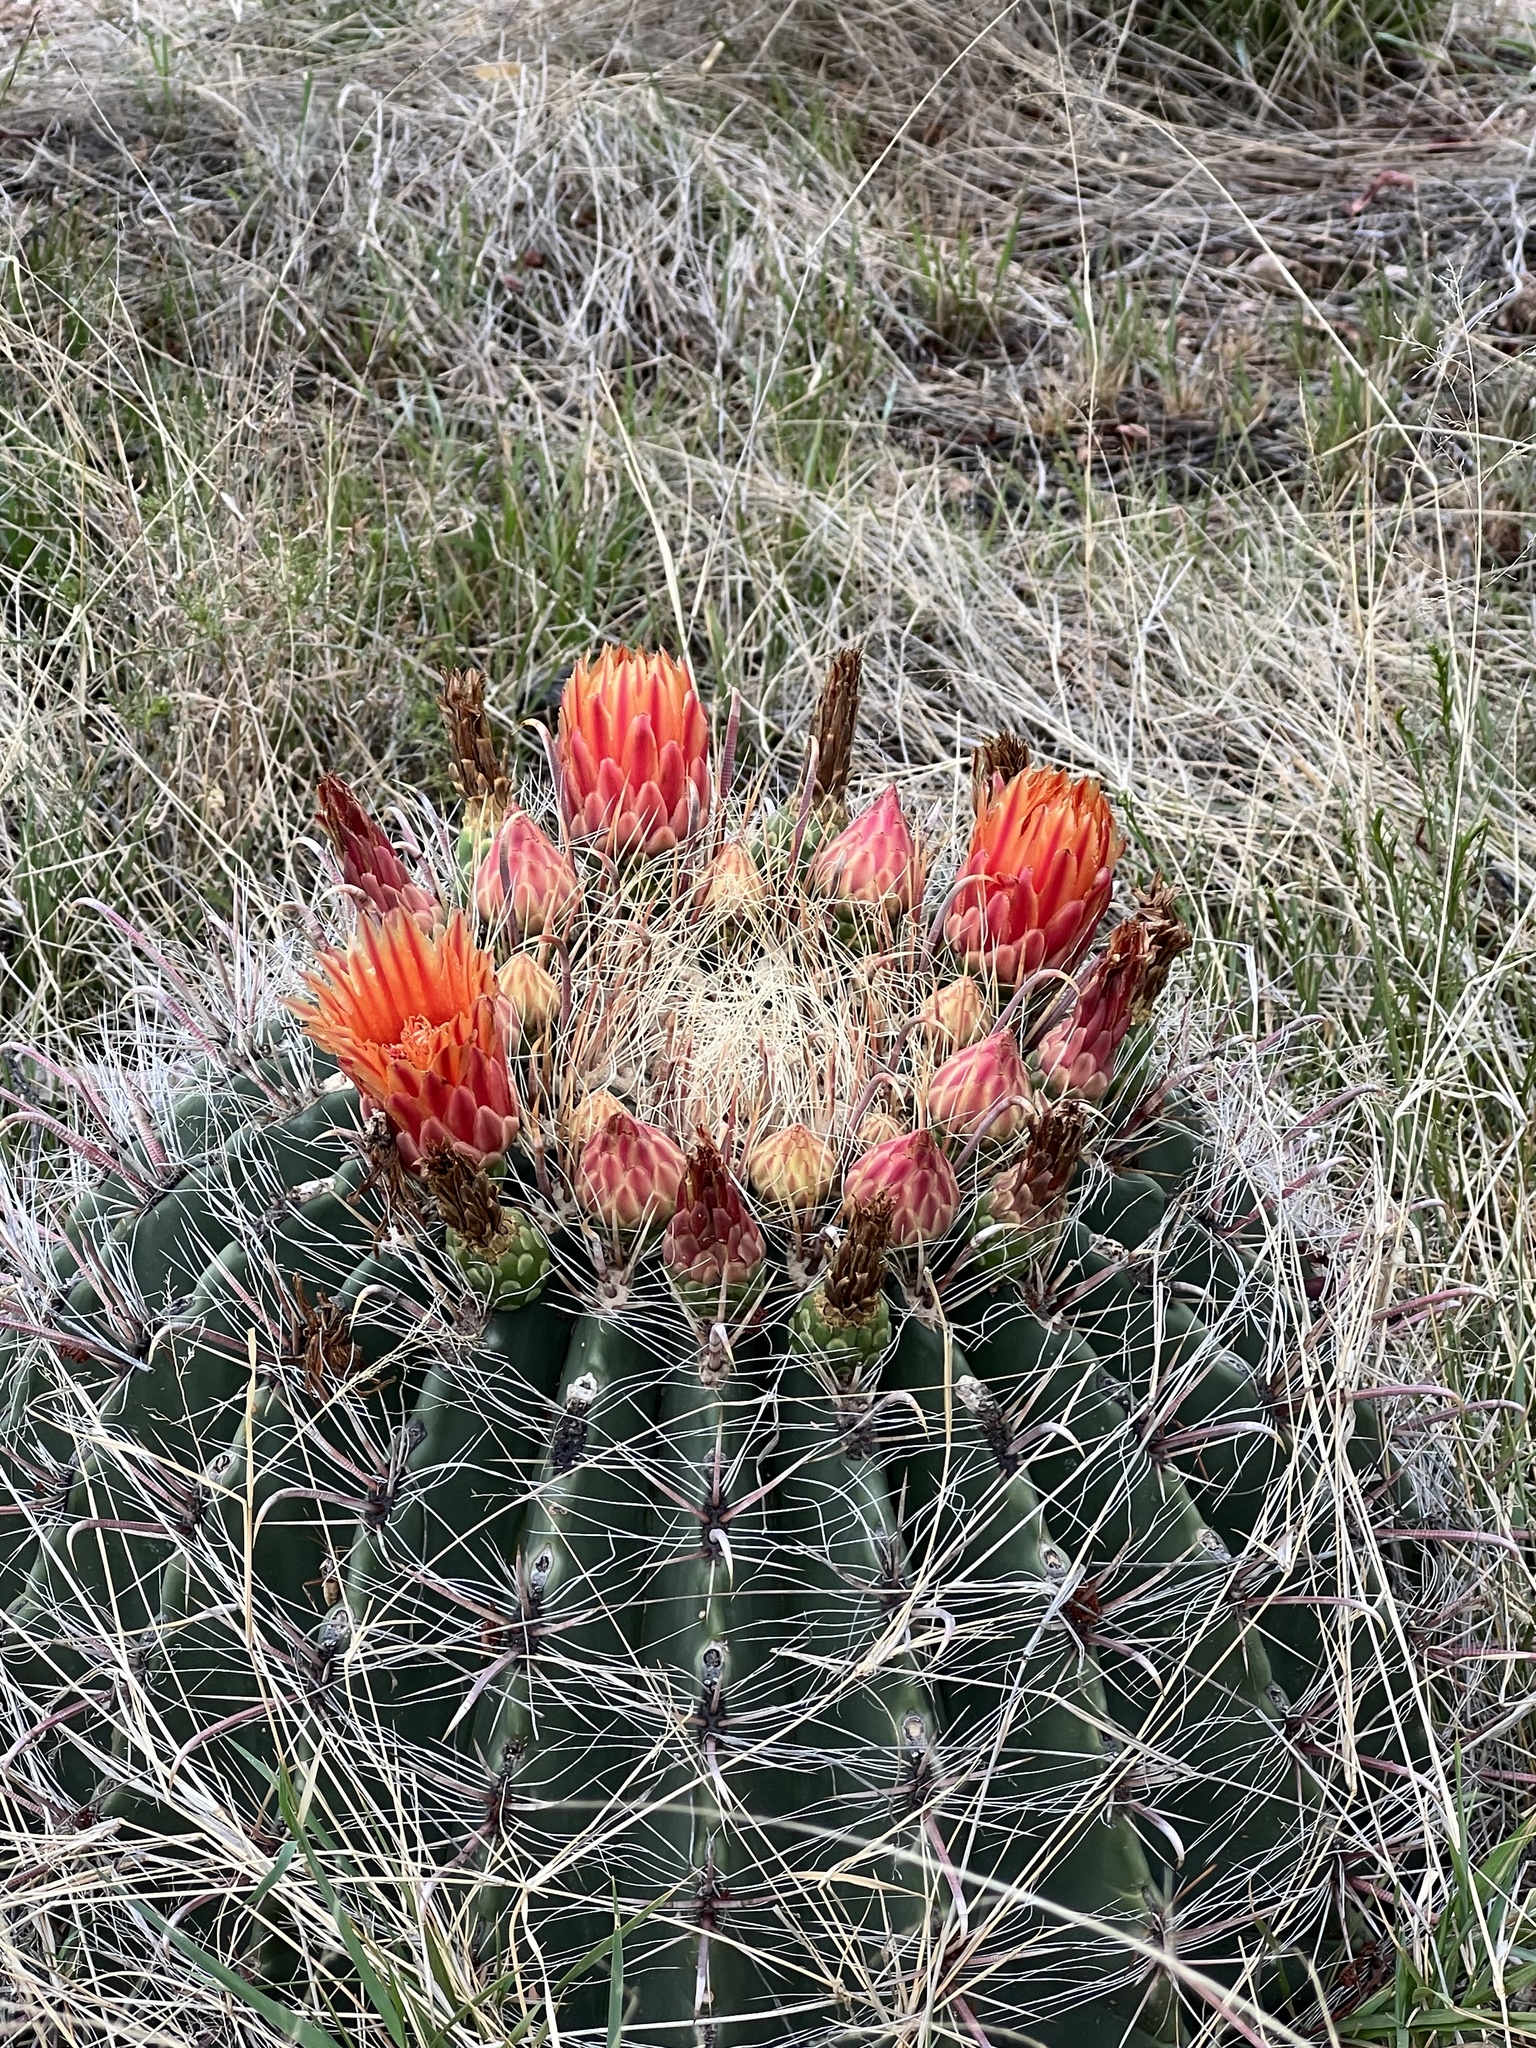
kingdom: Plantae
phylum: Tracheophyta
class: Magnoliopsida
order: Caryophyllales
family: Cactaceae
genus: Ferocactus
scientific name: Ferocactus wislizeni
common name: Candy barrel cactus
